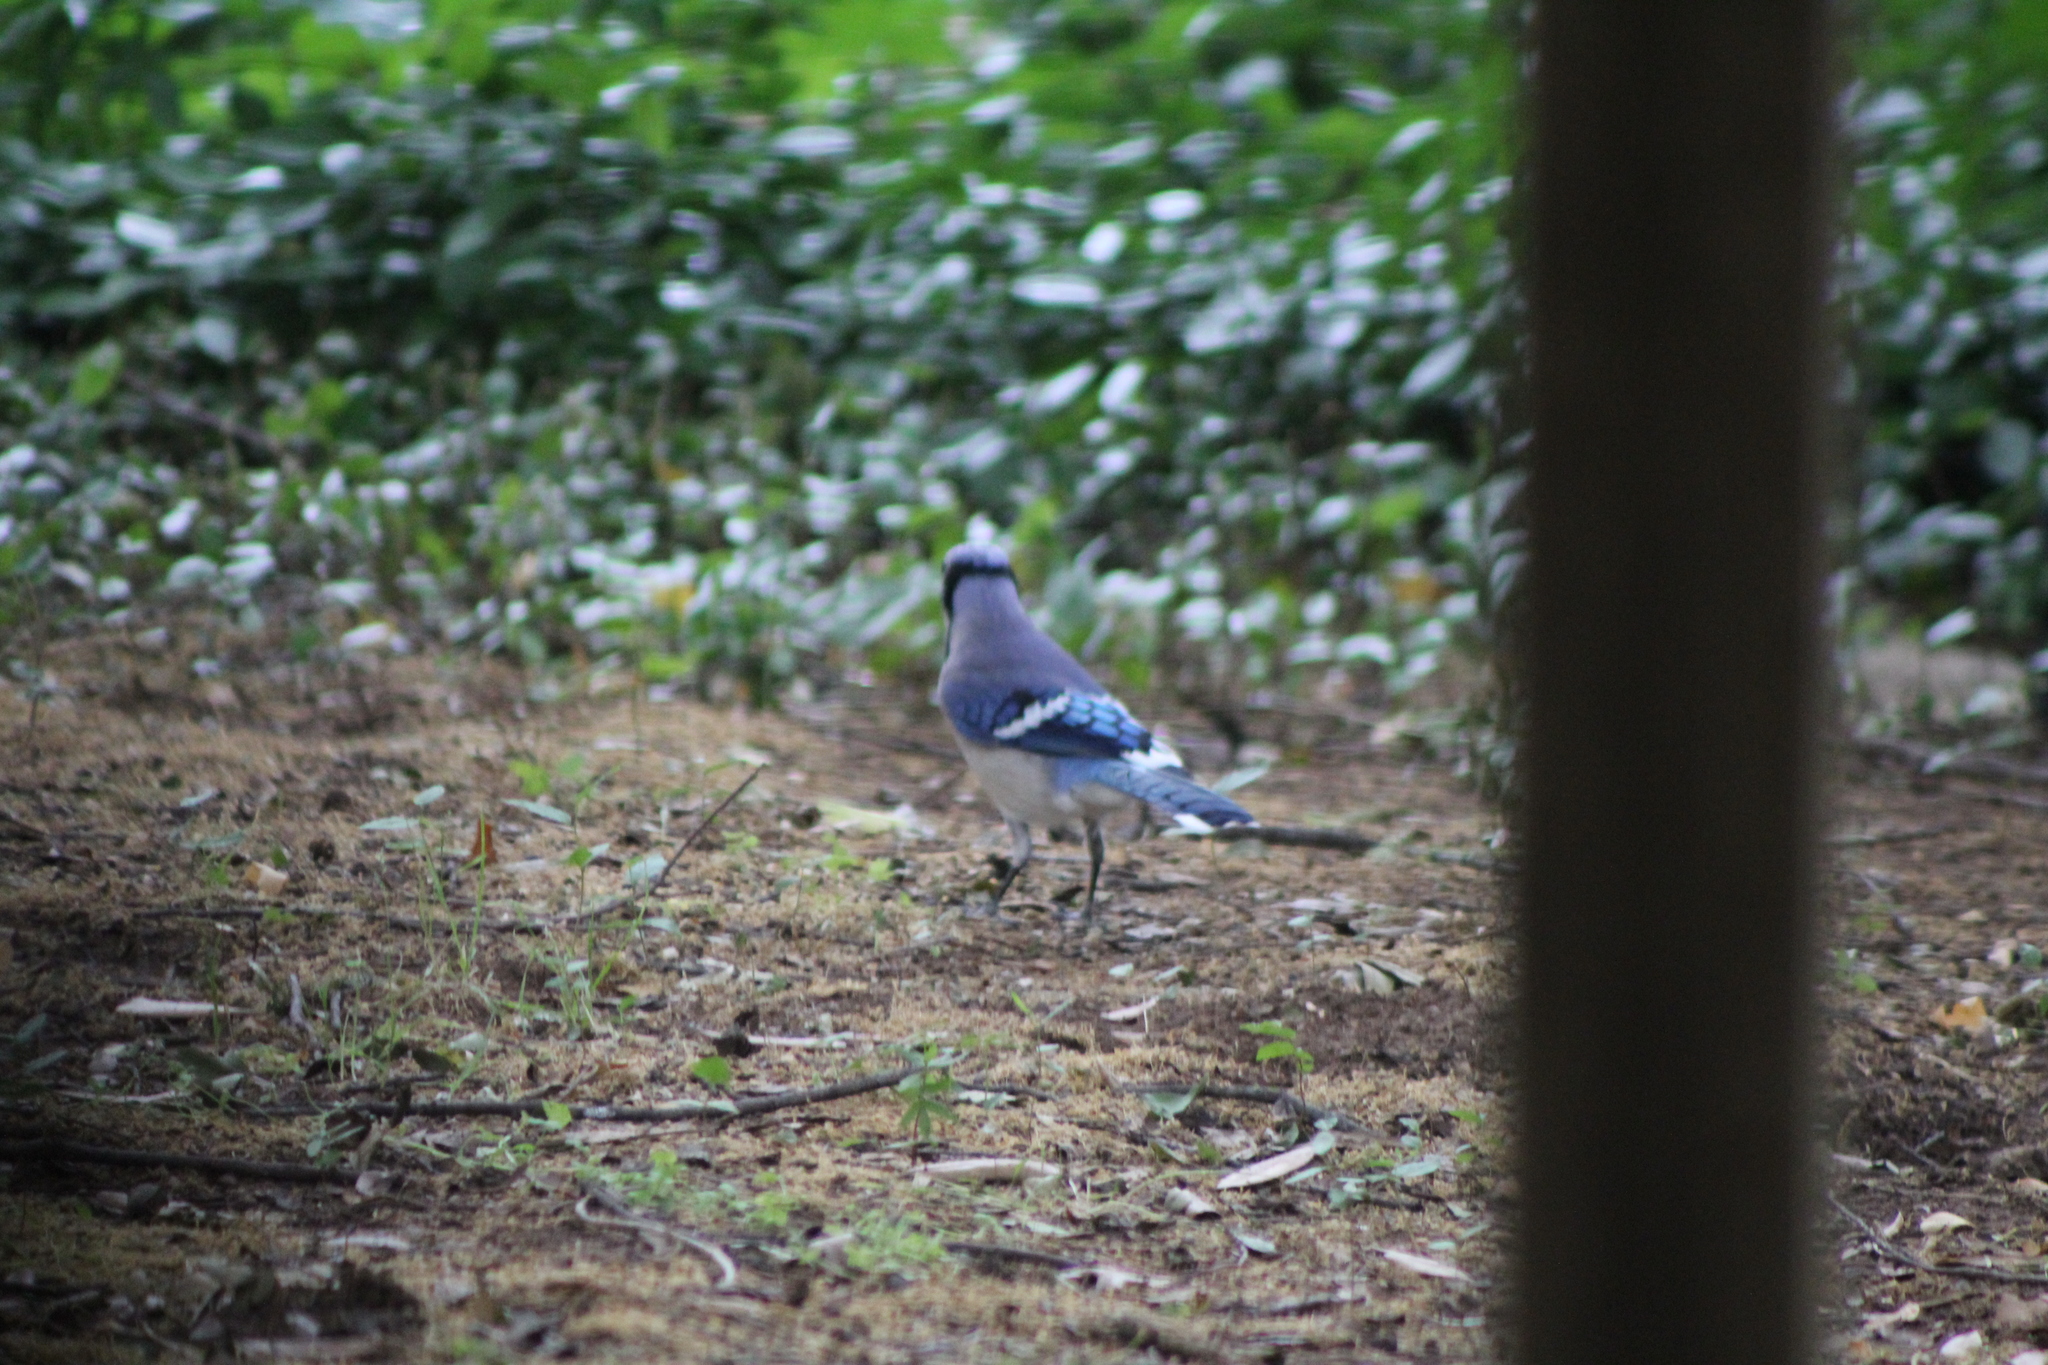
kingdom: Animalia
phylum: Chordata
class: Aves
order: Passeriformes
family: Corvidae
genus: Cyanocitta
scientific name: Cyanocitta cristata
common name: Blue jay
